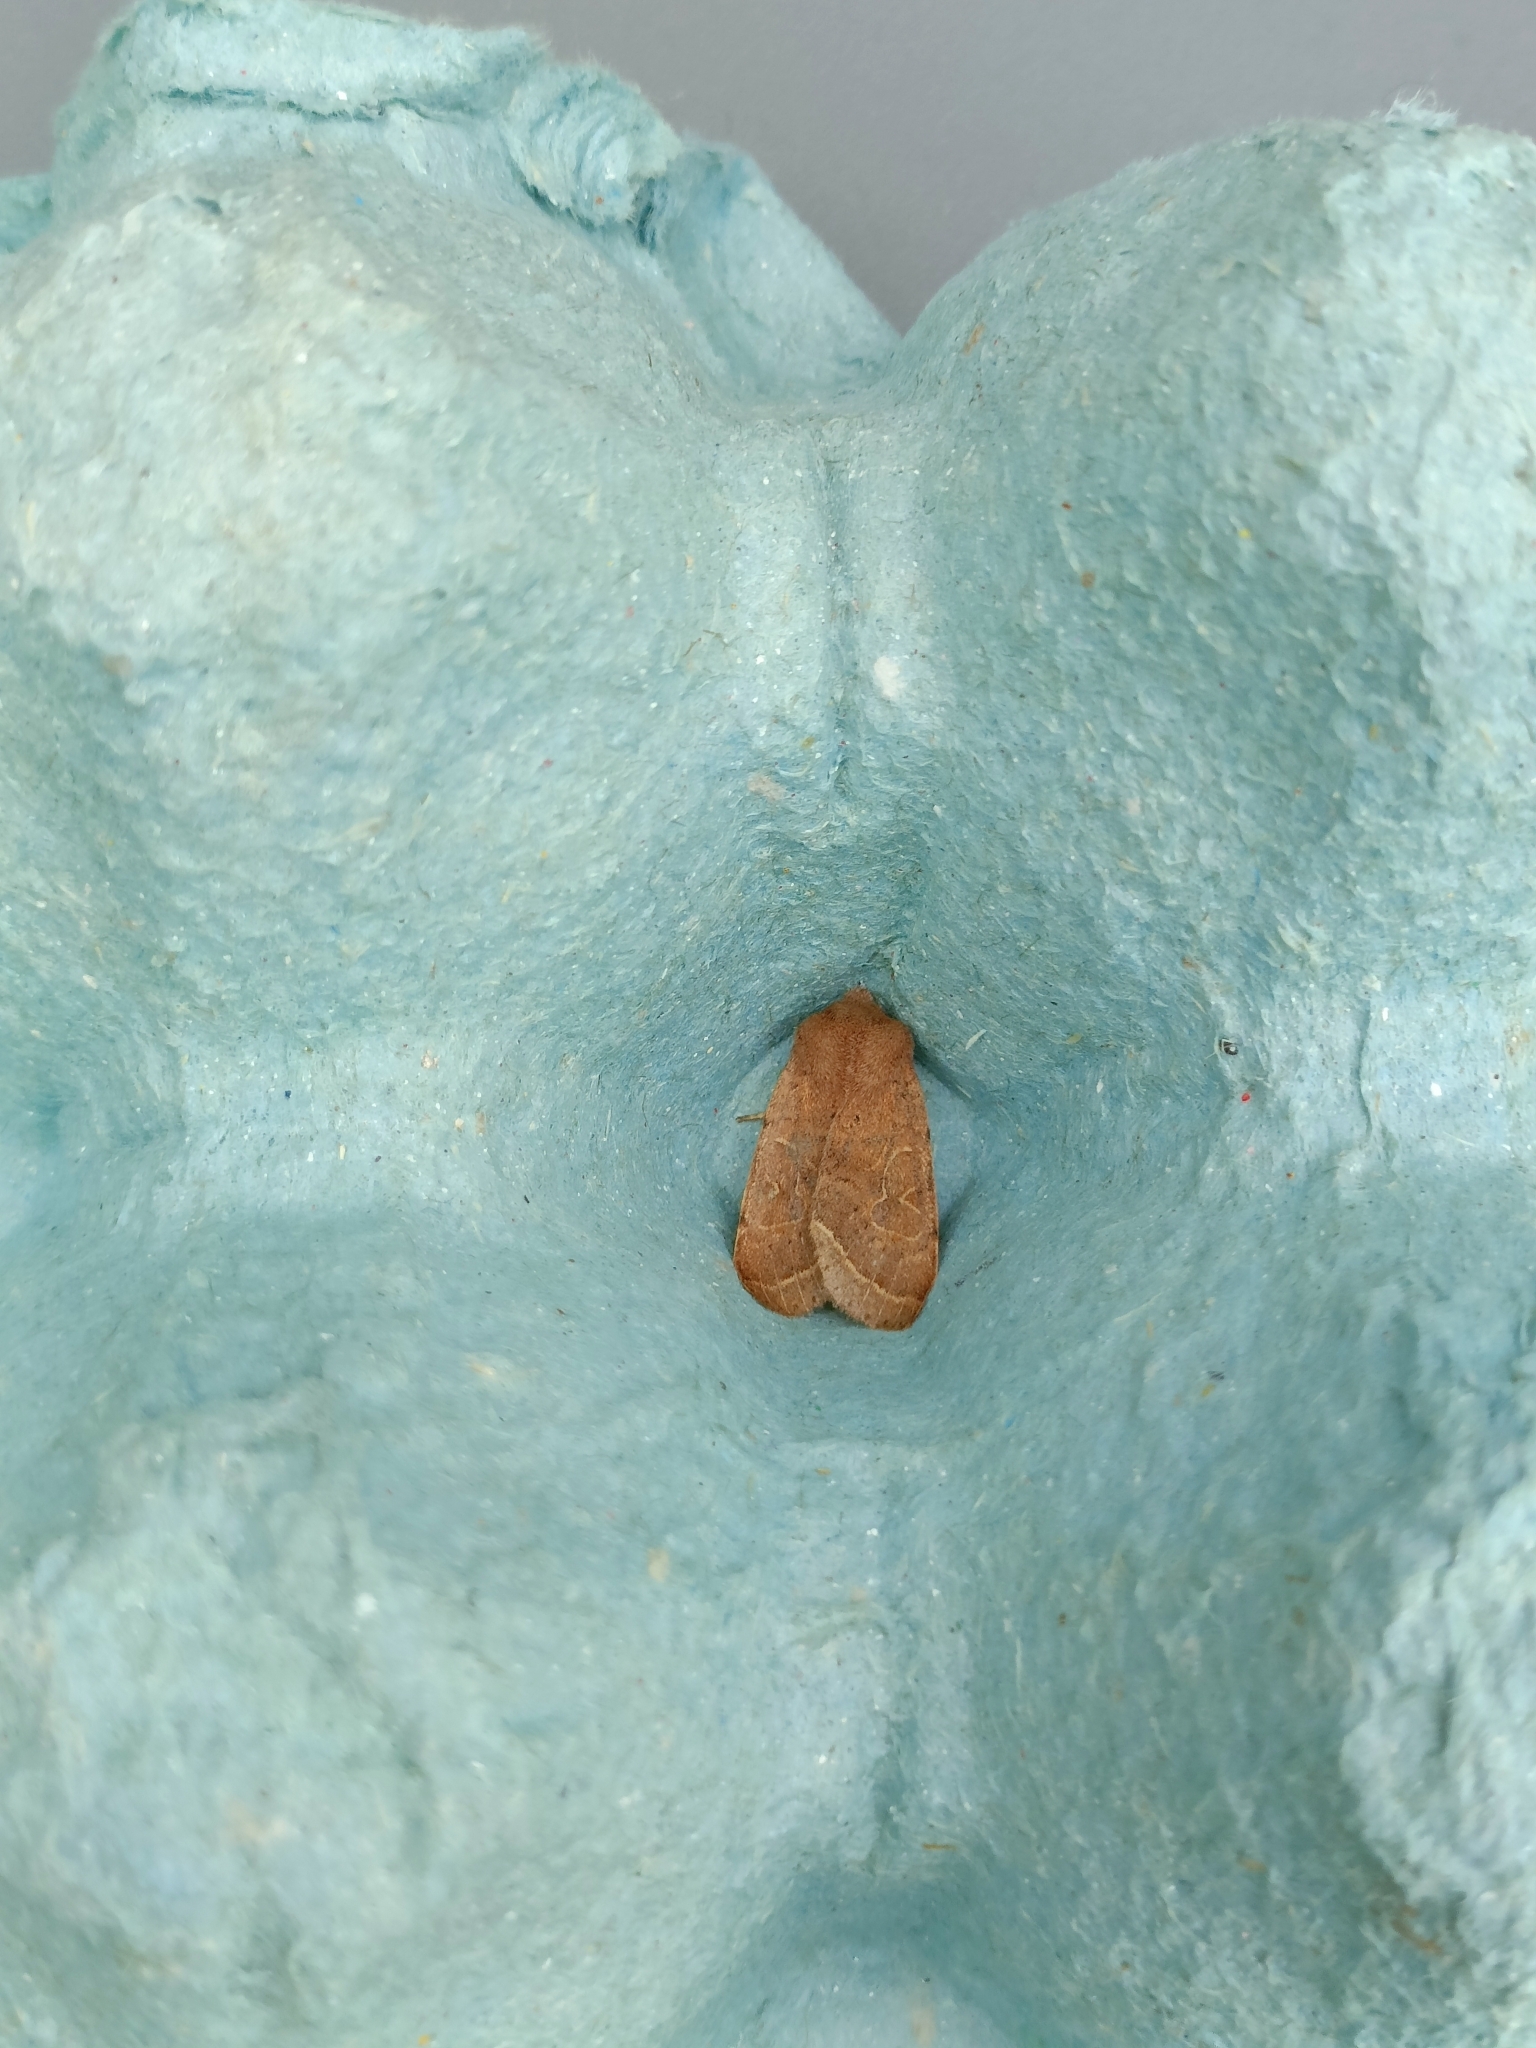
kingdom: Animalia
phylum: Arthropoda
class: Insecta
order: Lepidoptera
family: Noctuidae
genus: Orthosia
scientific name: Orthosia cerasi
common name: Common quaker
